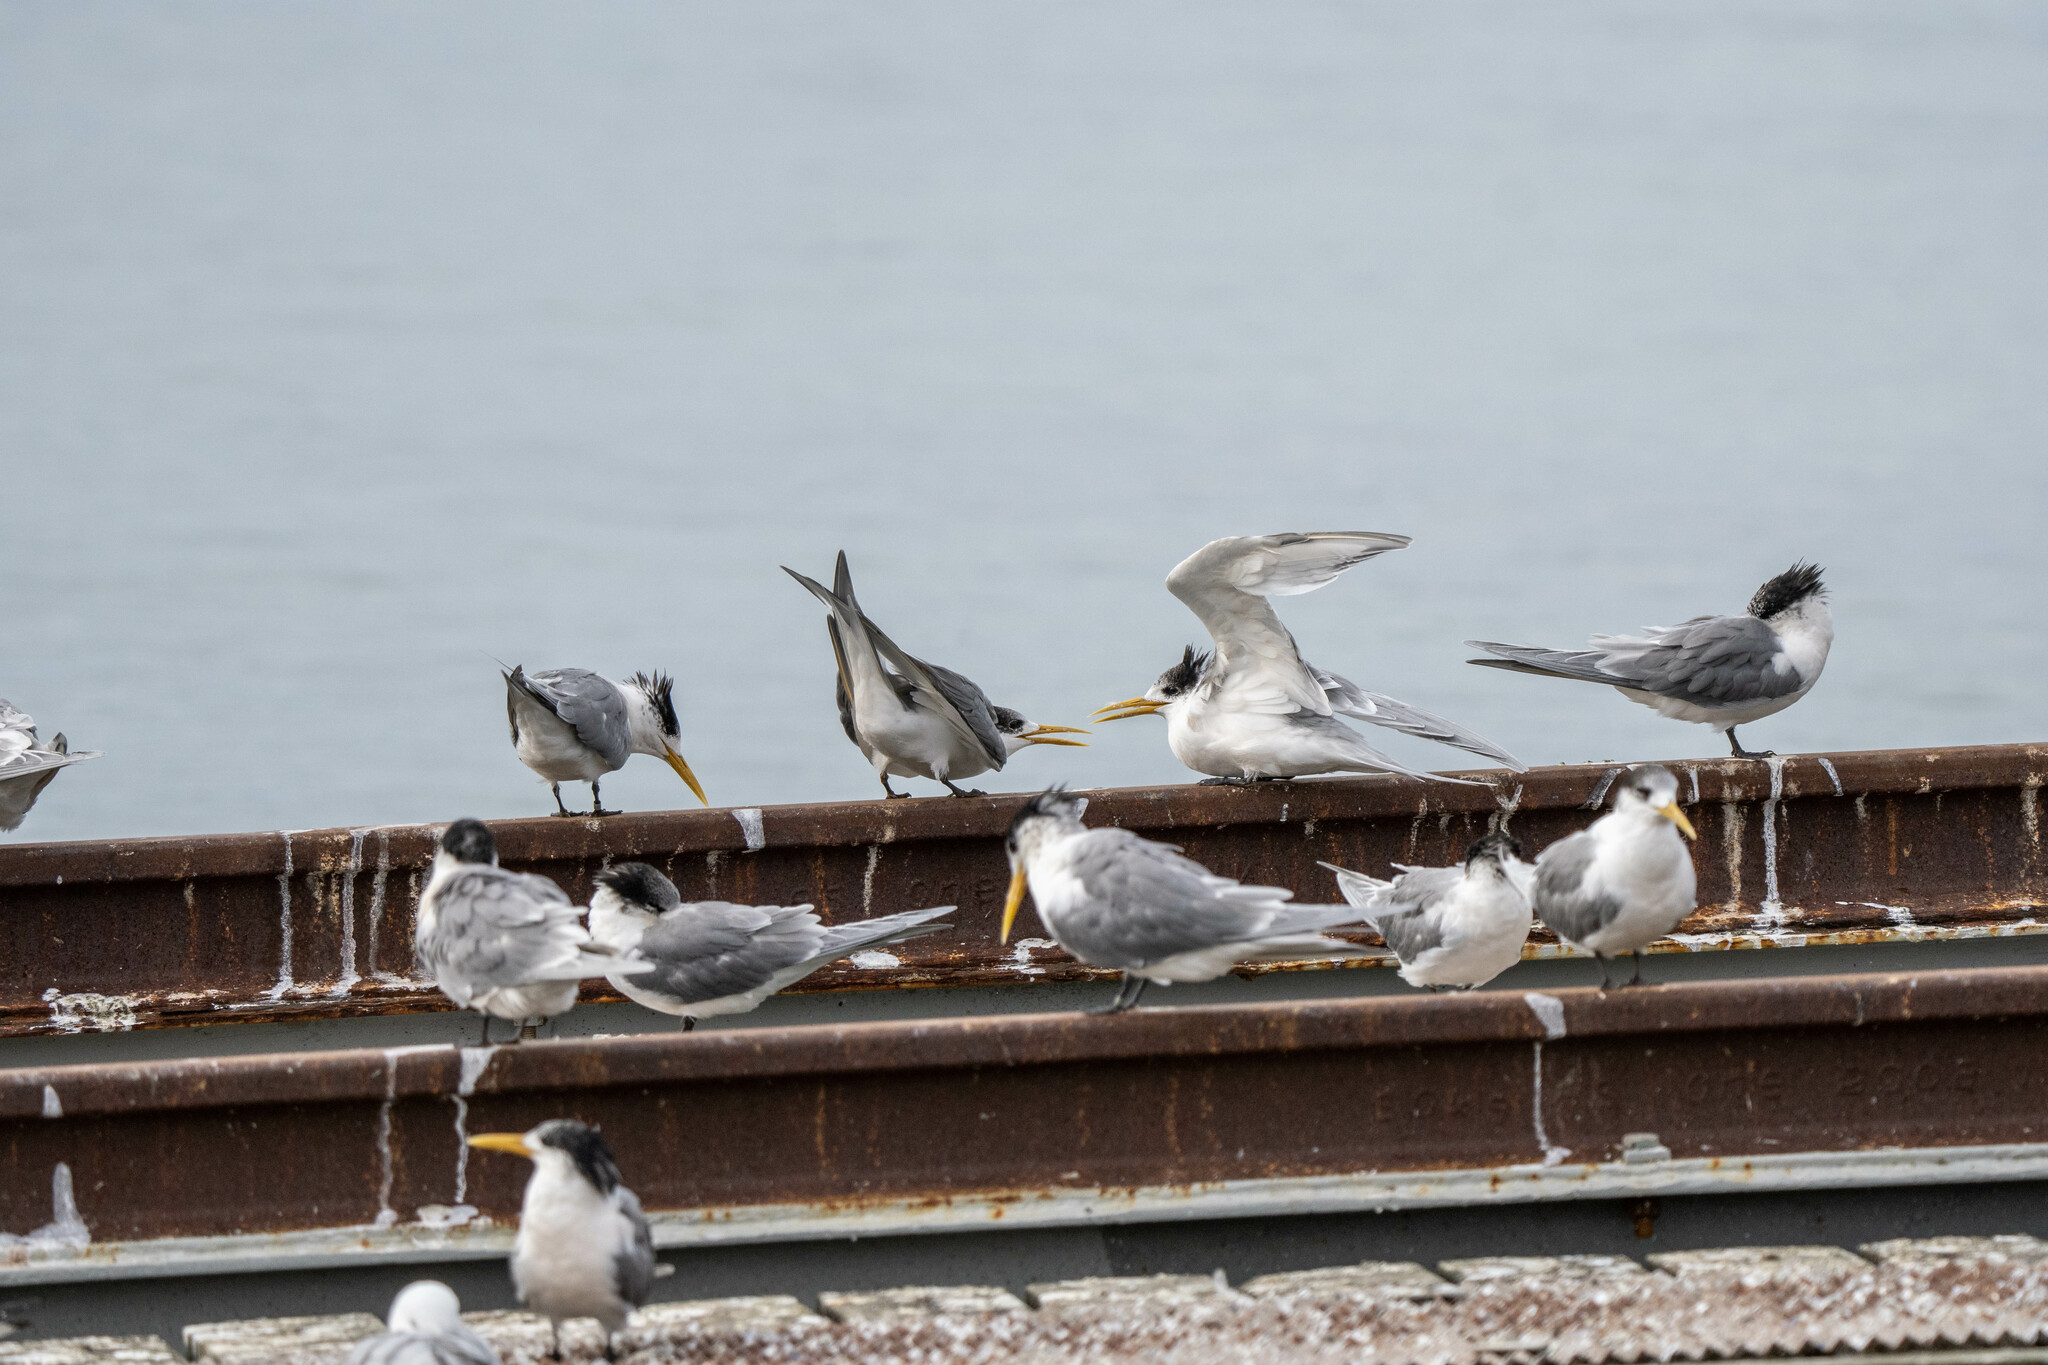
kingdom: Animalia
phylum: Chordata
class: Aves
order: Charadriiformes
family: Laridae
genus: Thalasseus
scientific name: Thalasseus bergii
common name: Greater crested tern
